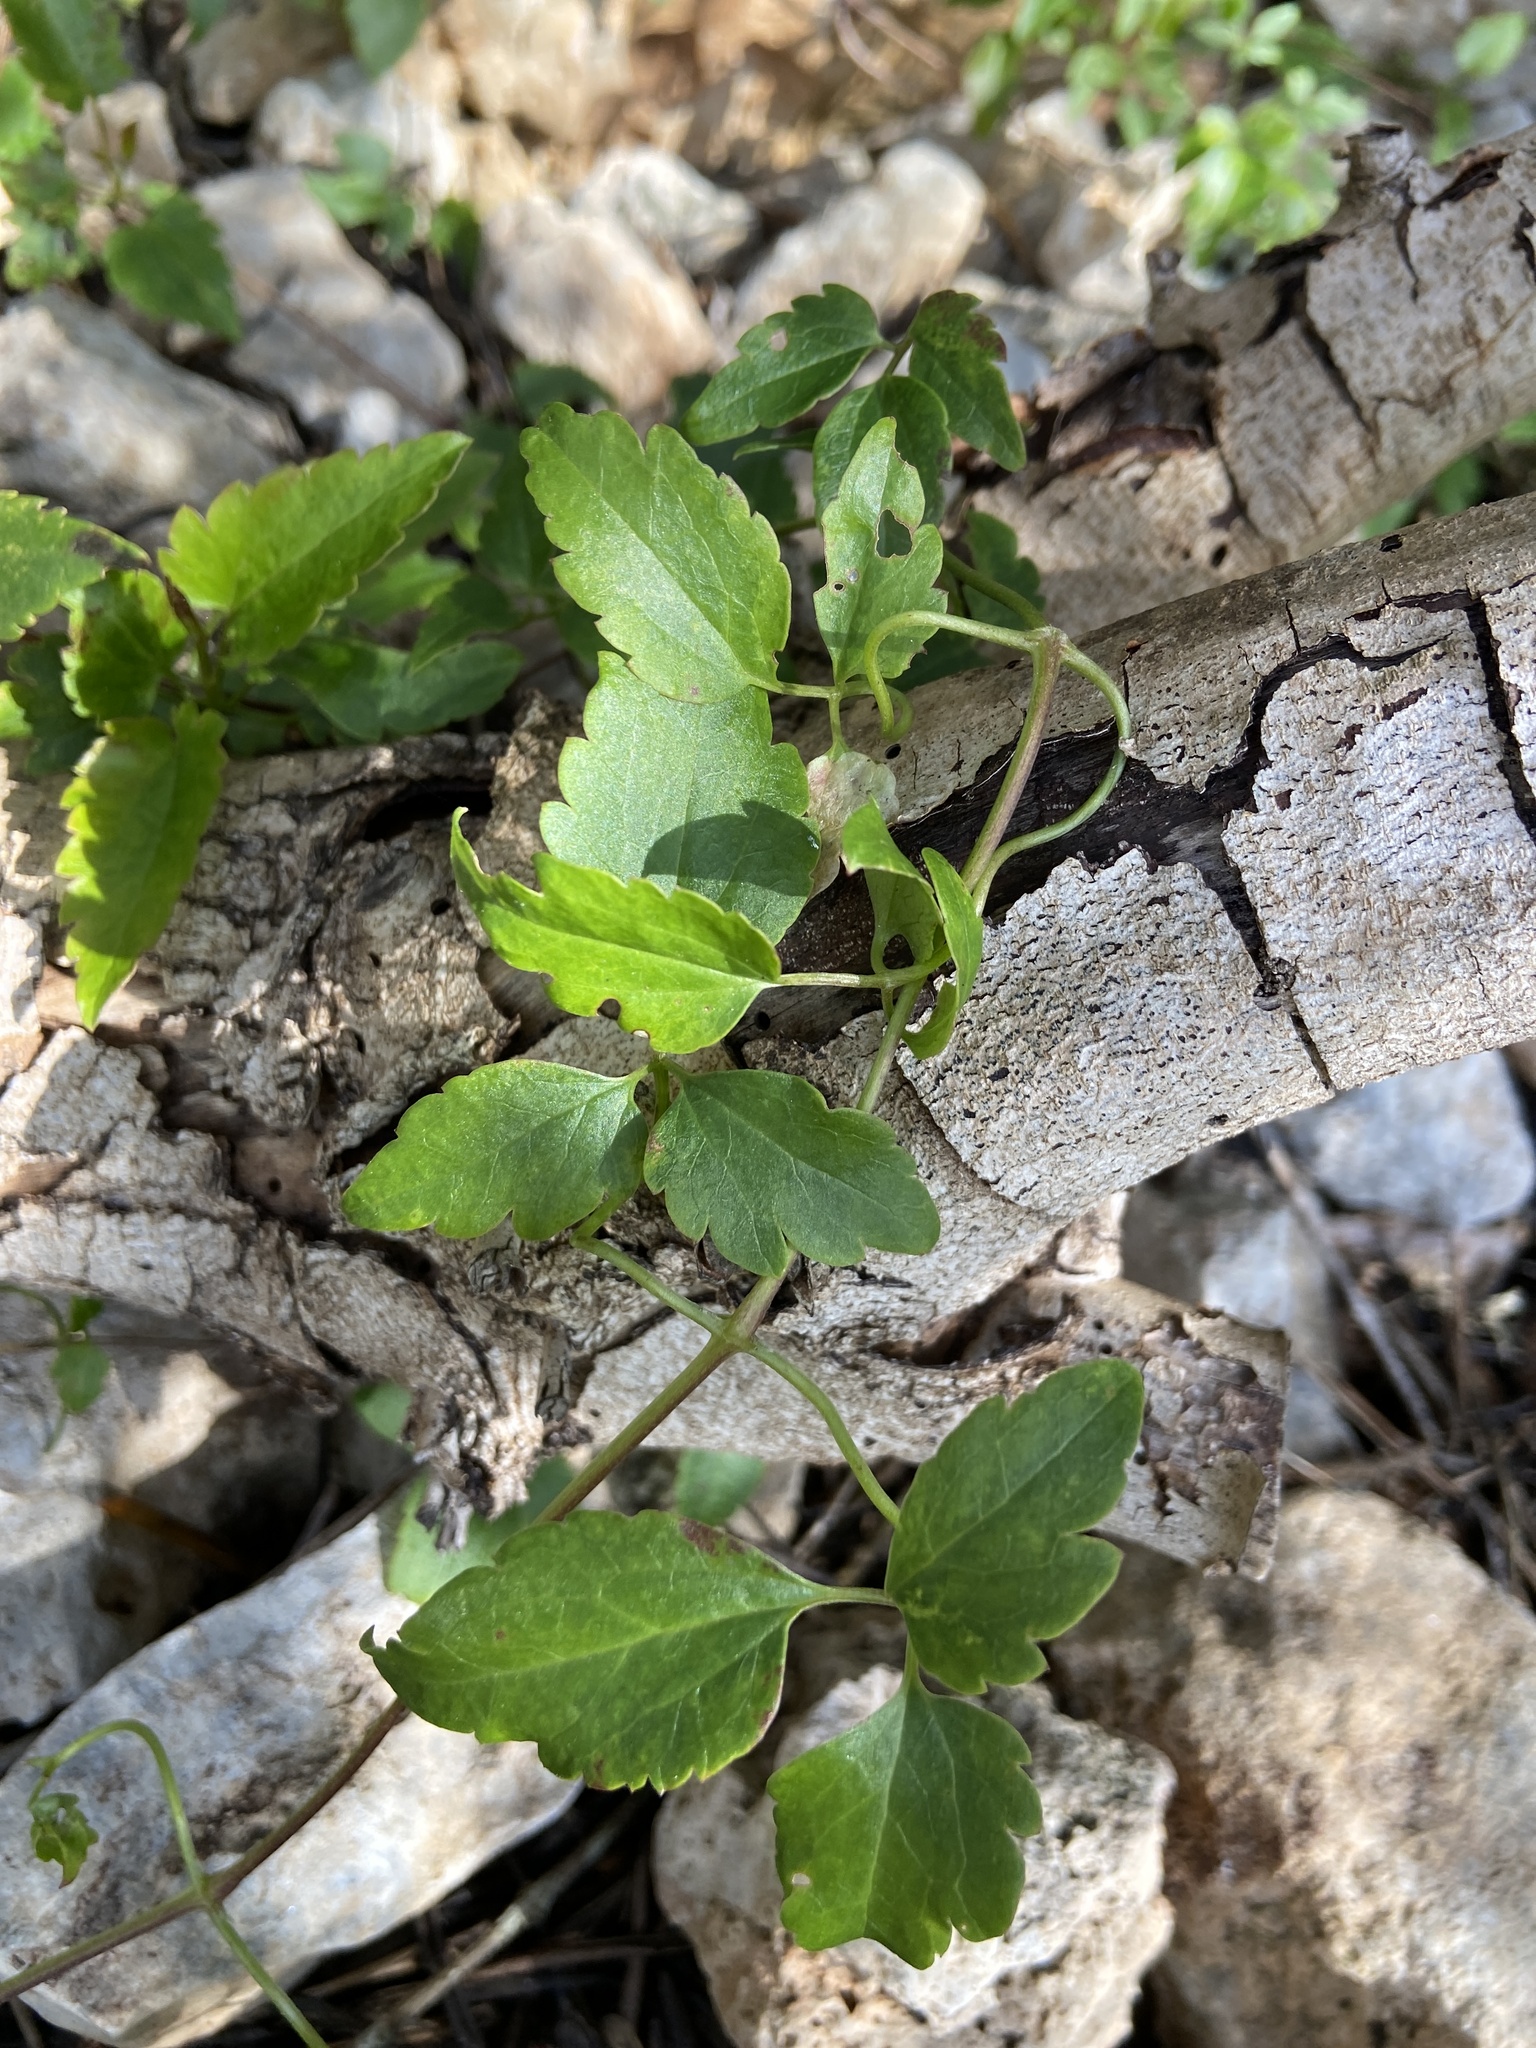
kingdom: Plantae
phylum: Tracheophyta
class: Magnoliopsida
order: Ranunculales
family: Ranunculaceae
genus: Clematis
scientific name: Clematis cirrhosa
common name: Early virgin's-bower
